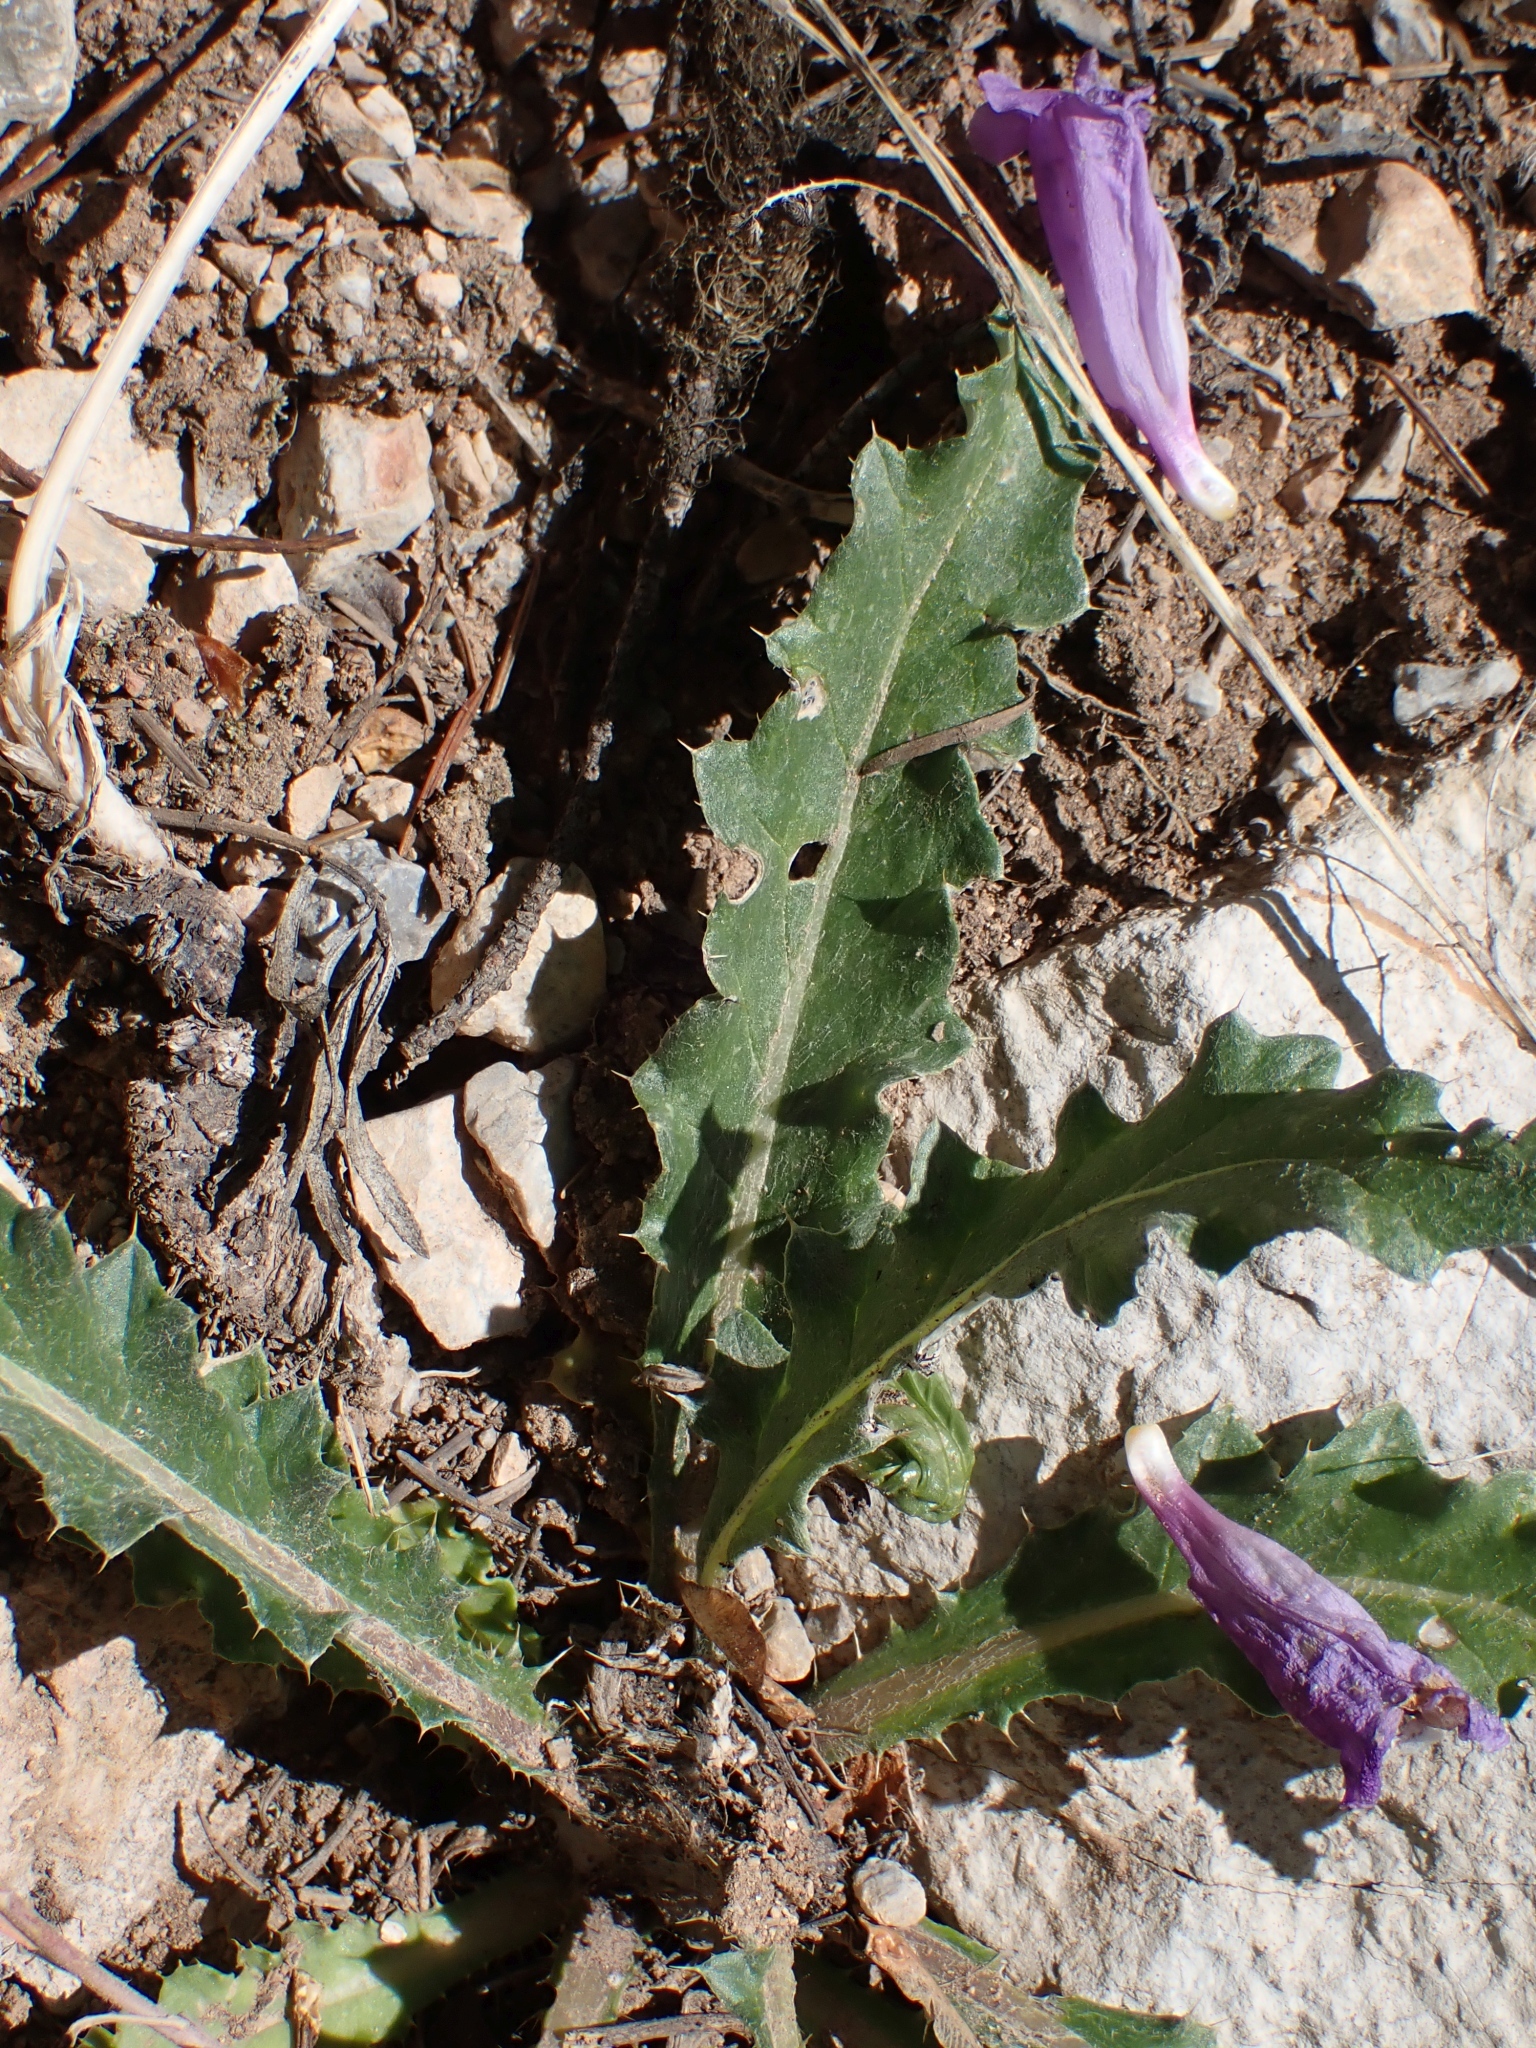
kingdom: Plantae
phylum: Tracheophyta
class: Magnoliopsida
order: Asterales
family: Asteraceae
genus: Cirsium
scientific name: Cirsium hookerianum
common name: Hooker's thistle
